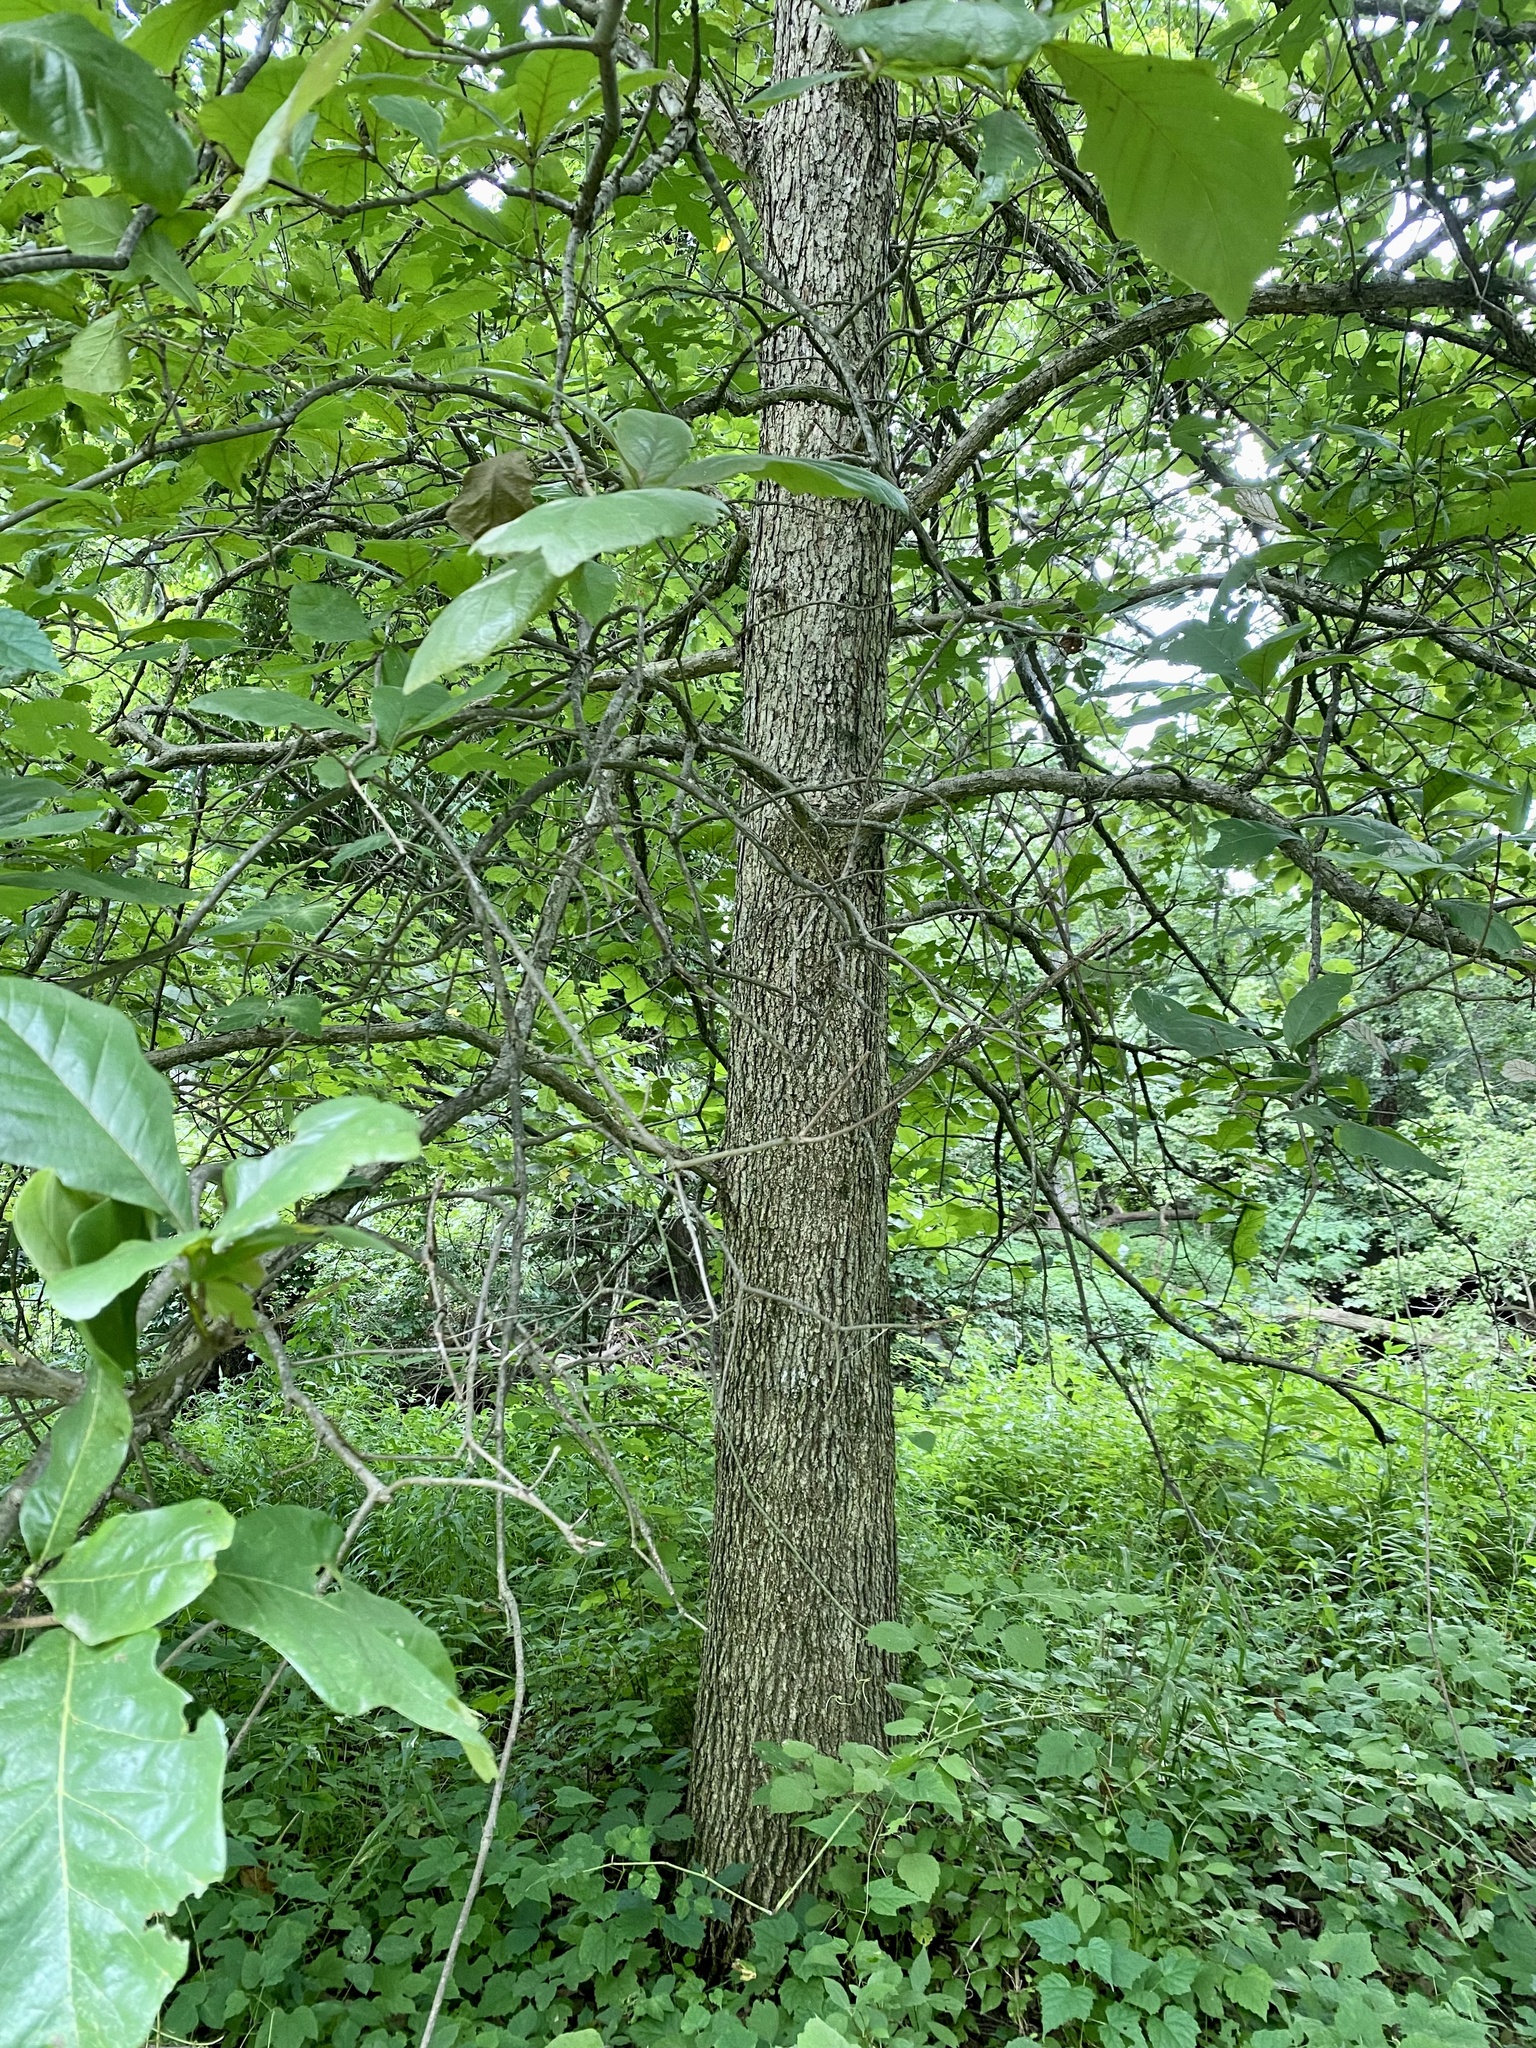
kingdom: Plantae
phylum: Tracheophyta
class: Magnoliopsida
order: Fagales
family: Fagaceae
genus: Quercus
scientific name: Quercus bicolor
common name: Swamp white oak
